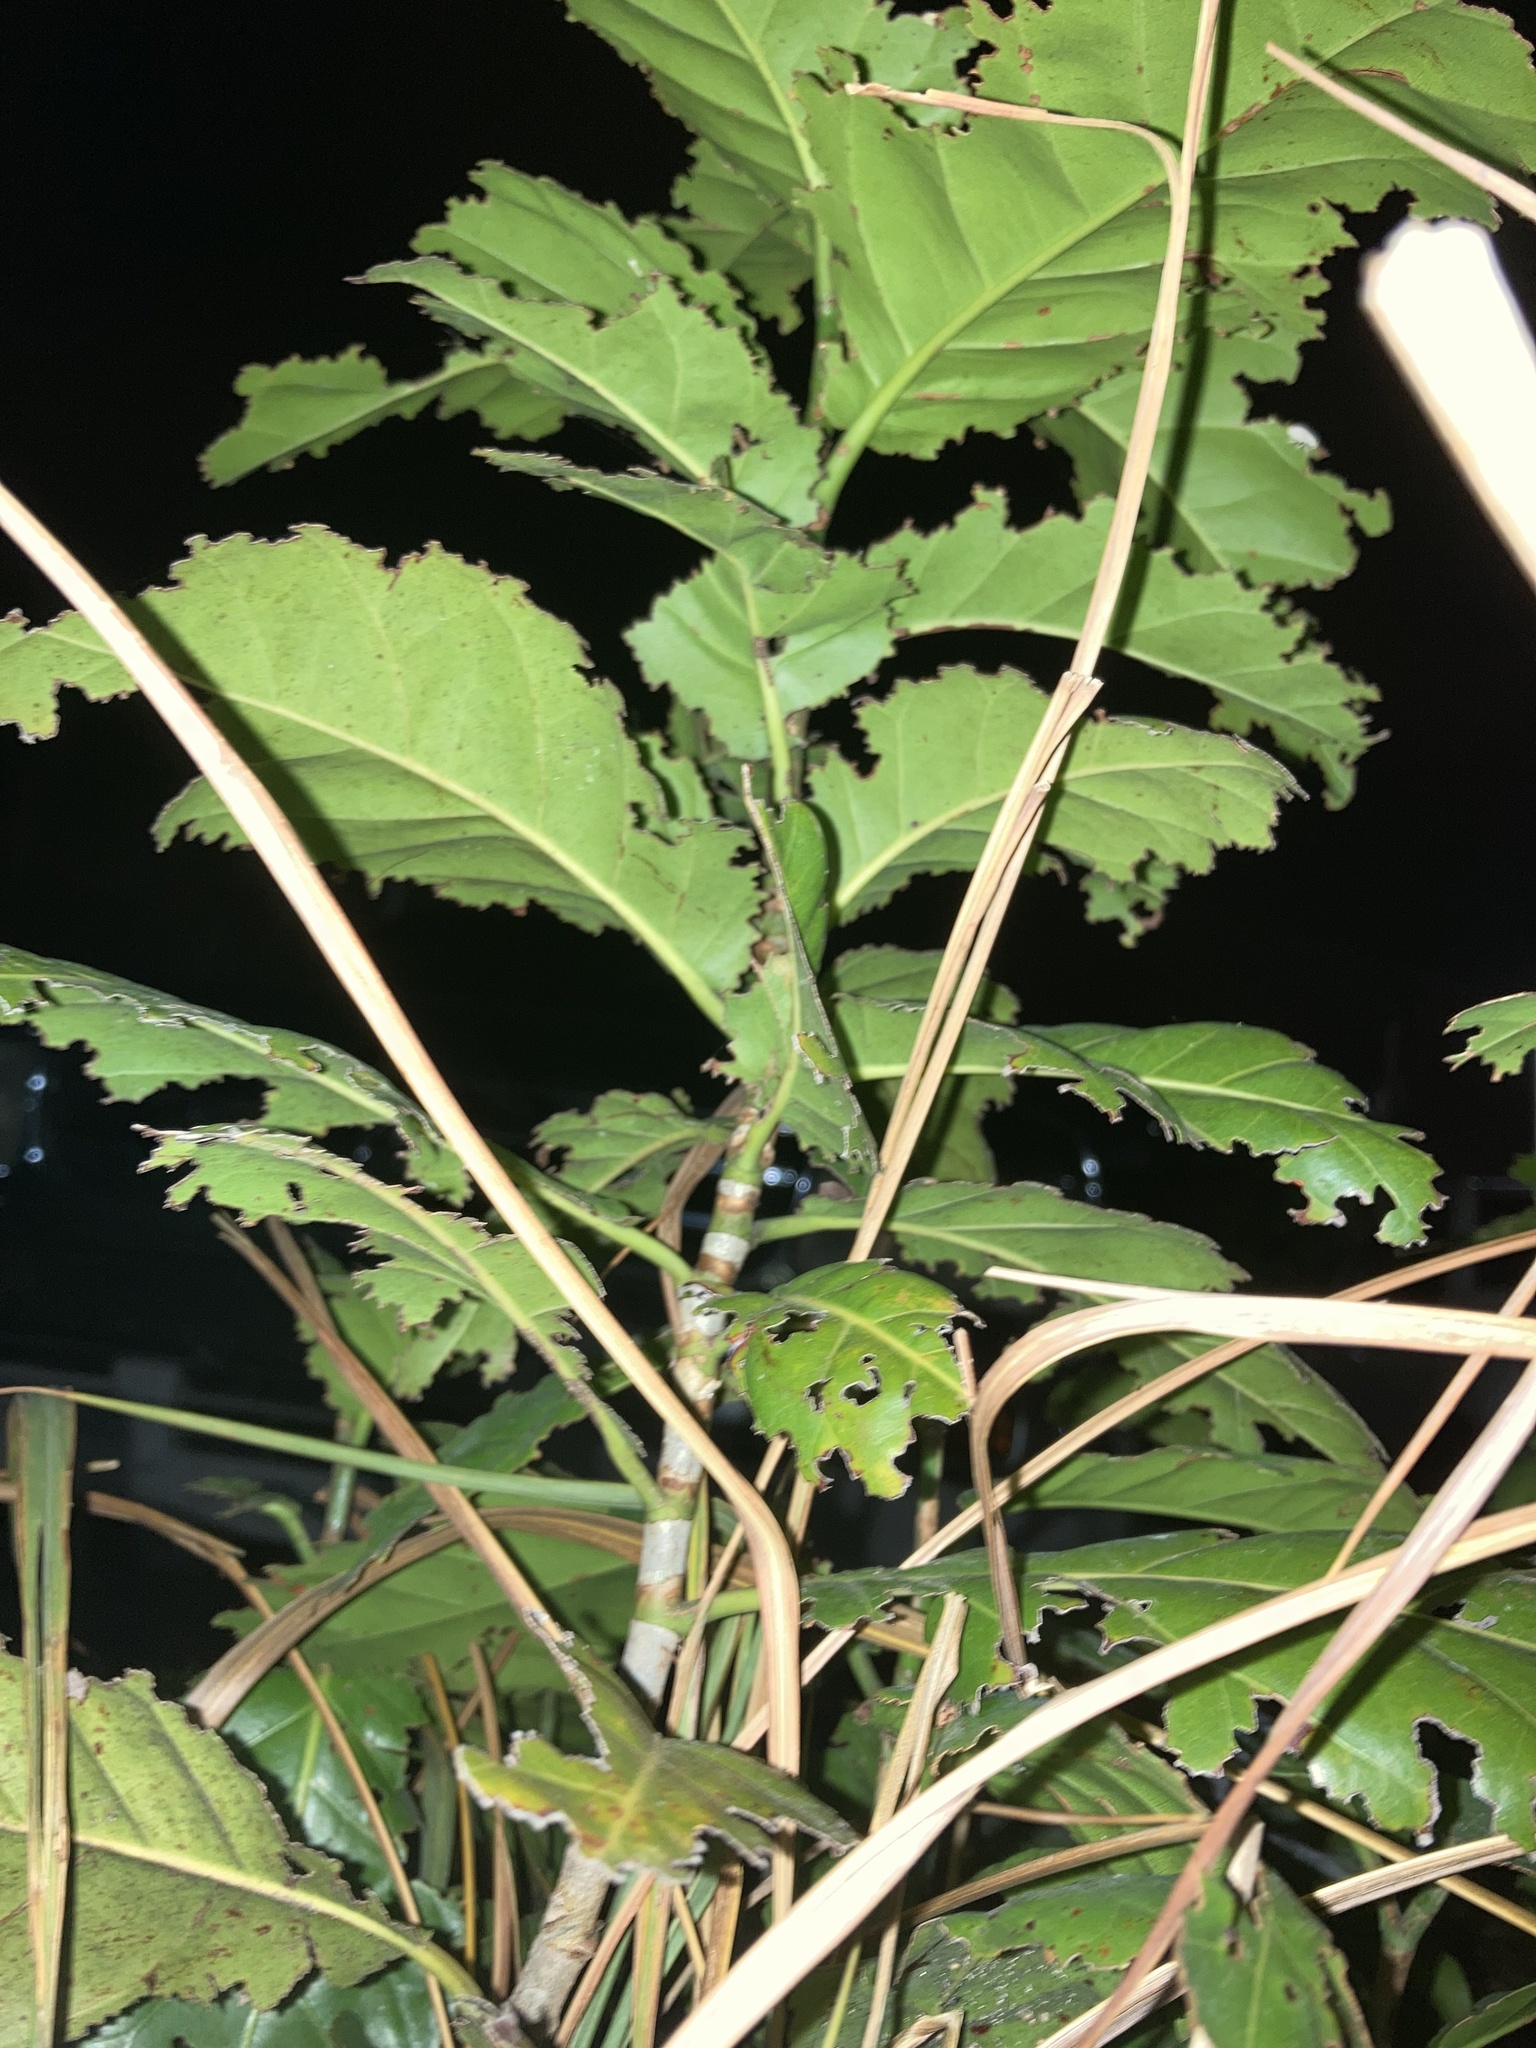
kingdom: Plantae
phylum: Tracheophyta
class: Magnoliopsida
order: Caryophyllales
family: Polygonaceae
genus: Coccoloba
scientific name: Coccoloba diversifolia
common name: Pigeon-plum
